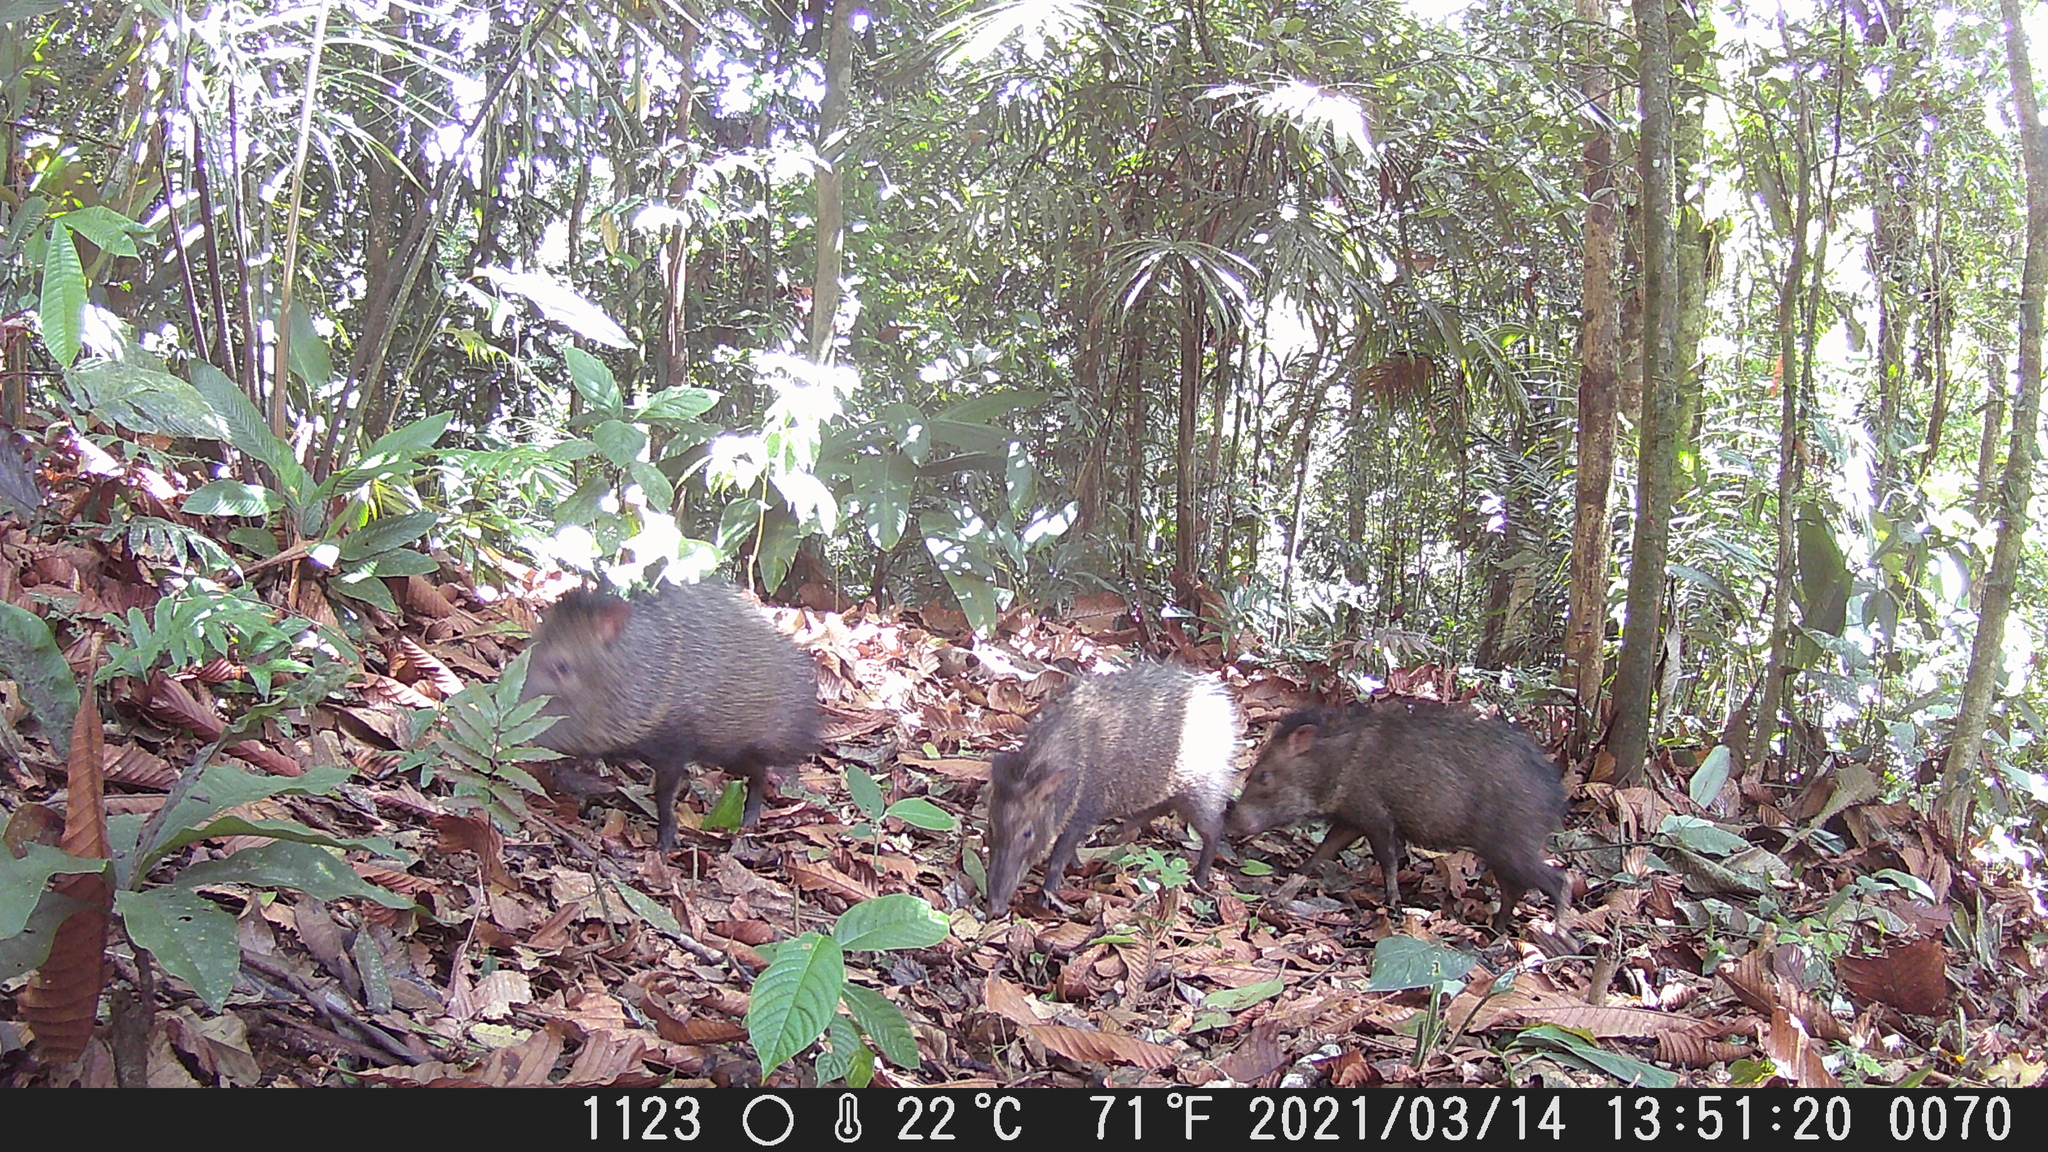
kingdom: Animalia
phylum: Chordata
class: Mammalia
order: Artiodactyla
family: Tayassuidae
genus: Pecari
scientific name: Pecari tajacu
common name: Collared peccary
